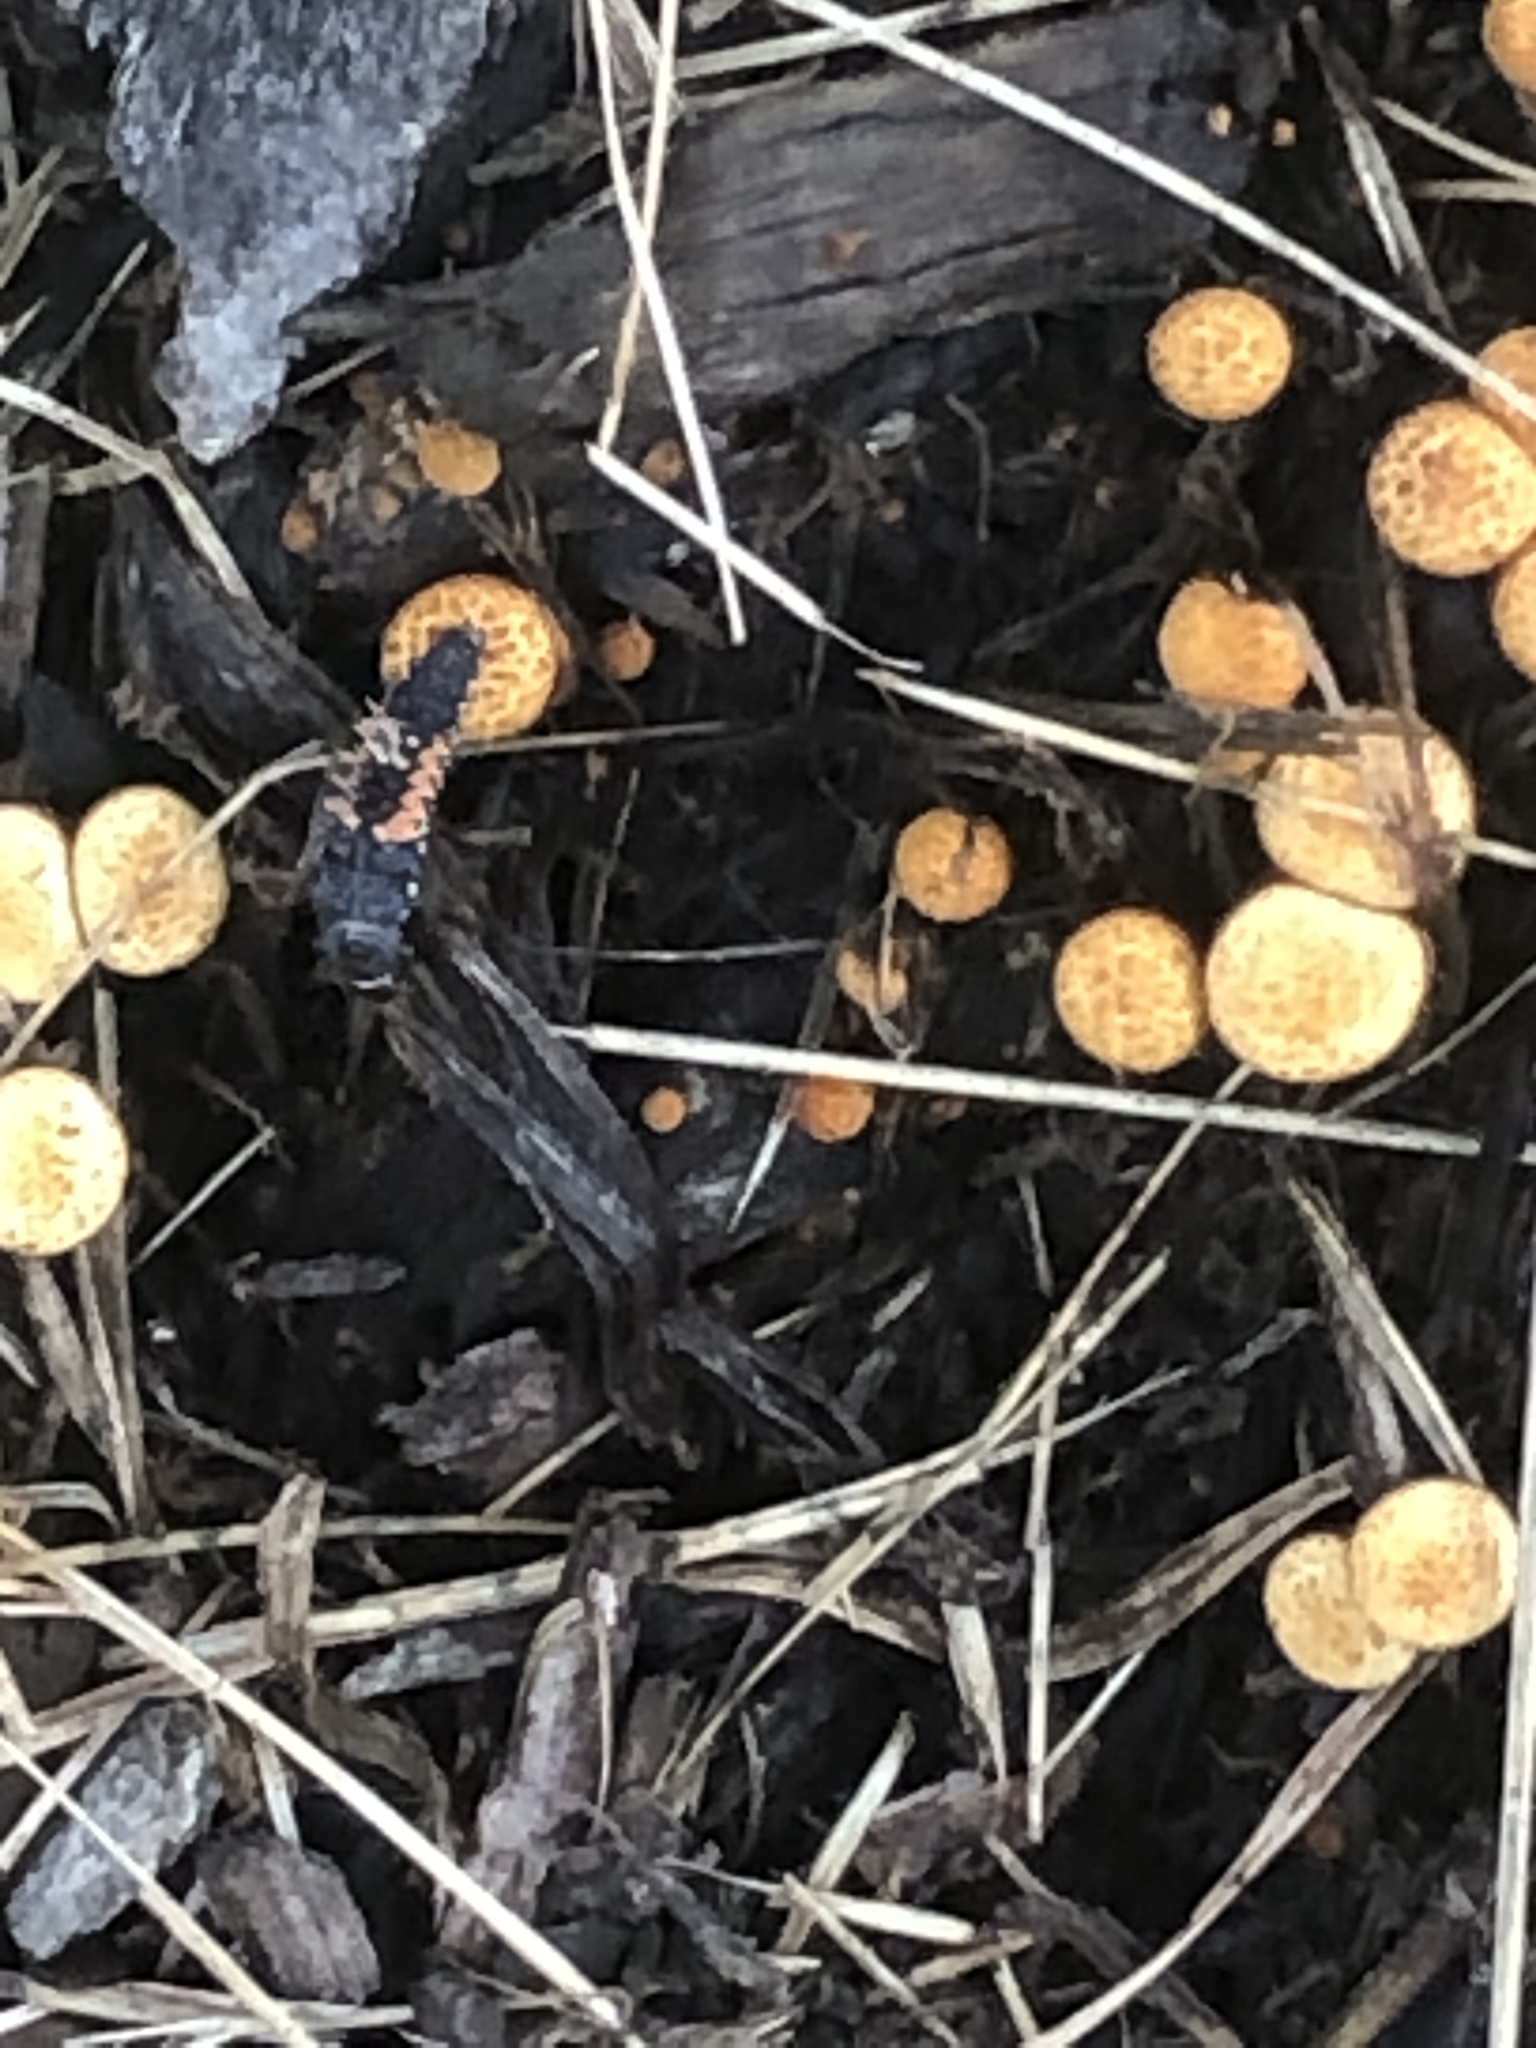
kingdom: Fungi
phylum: Basidiomycota
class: Agaricomycetes
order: Agaricales
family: Nidulariaceae
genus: Crucibulum
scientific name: Crucibulum laeve
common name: Common bird's nest
